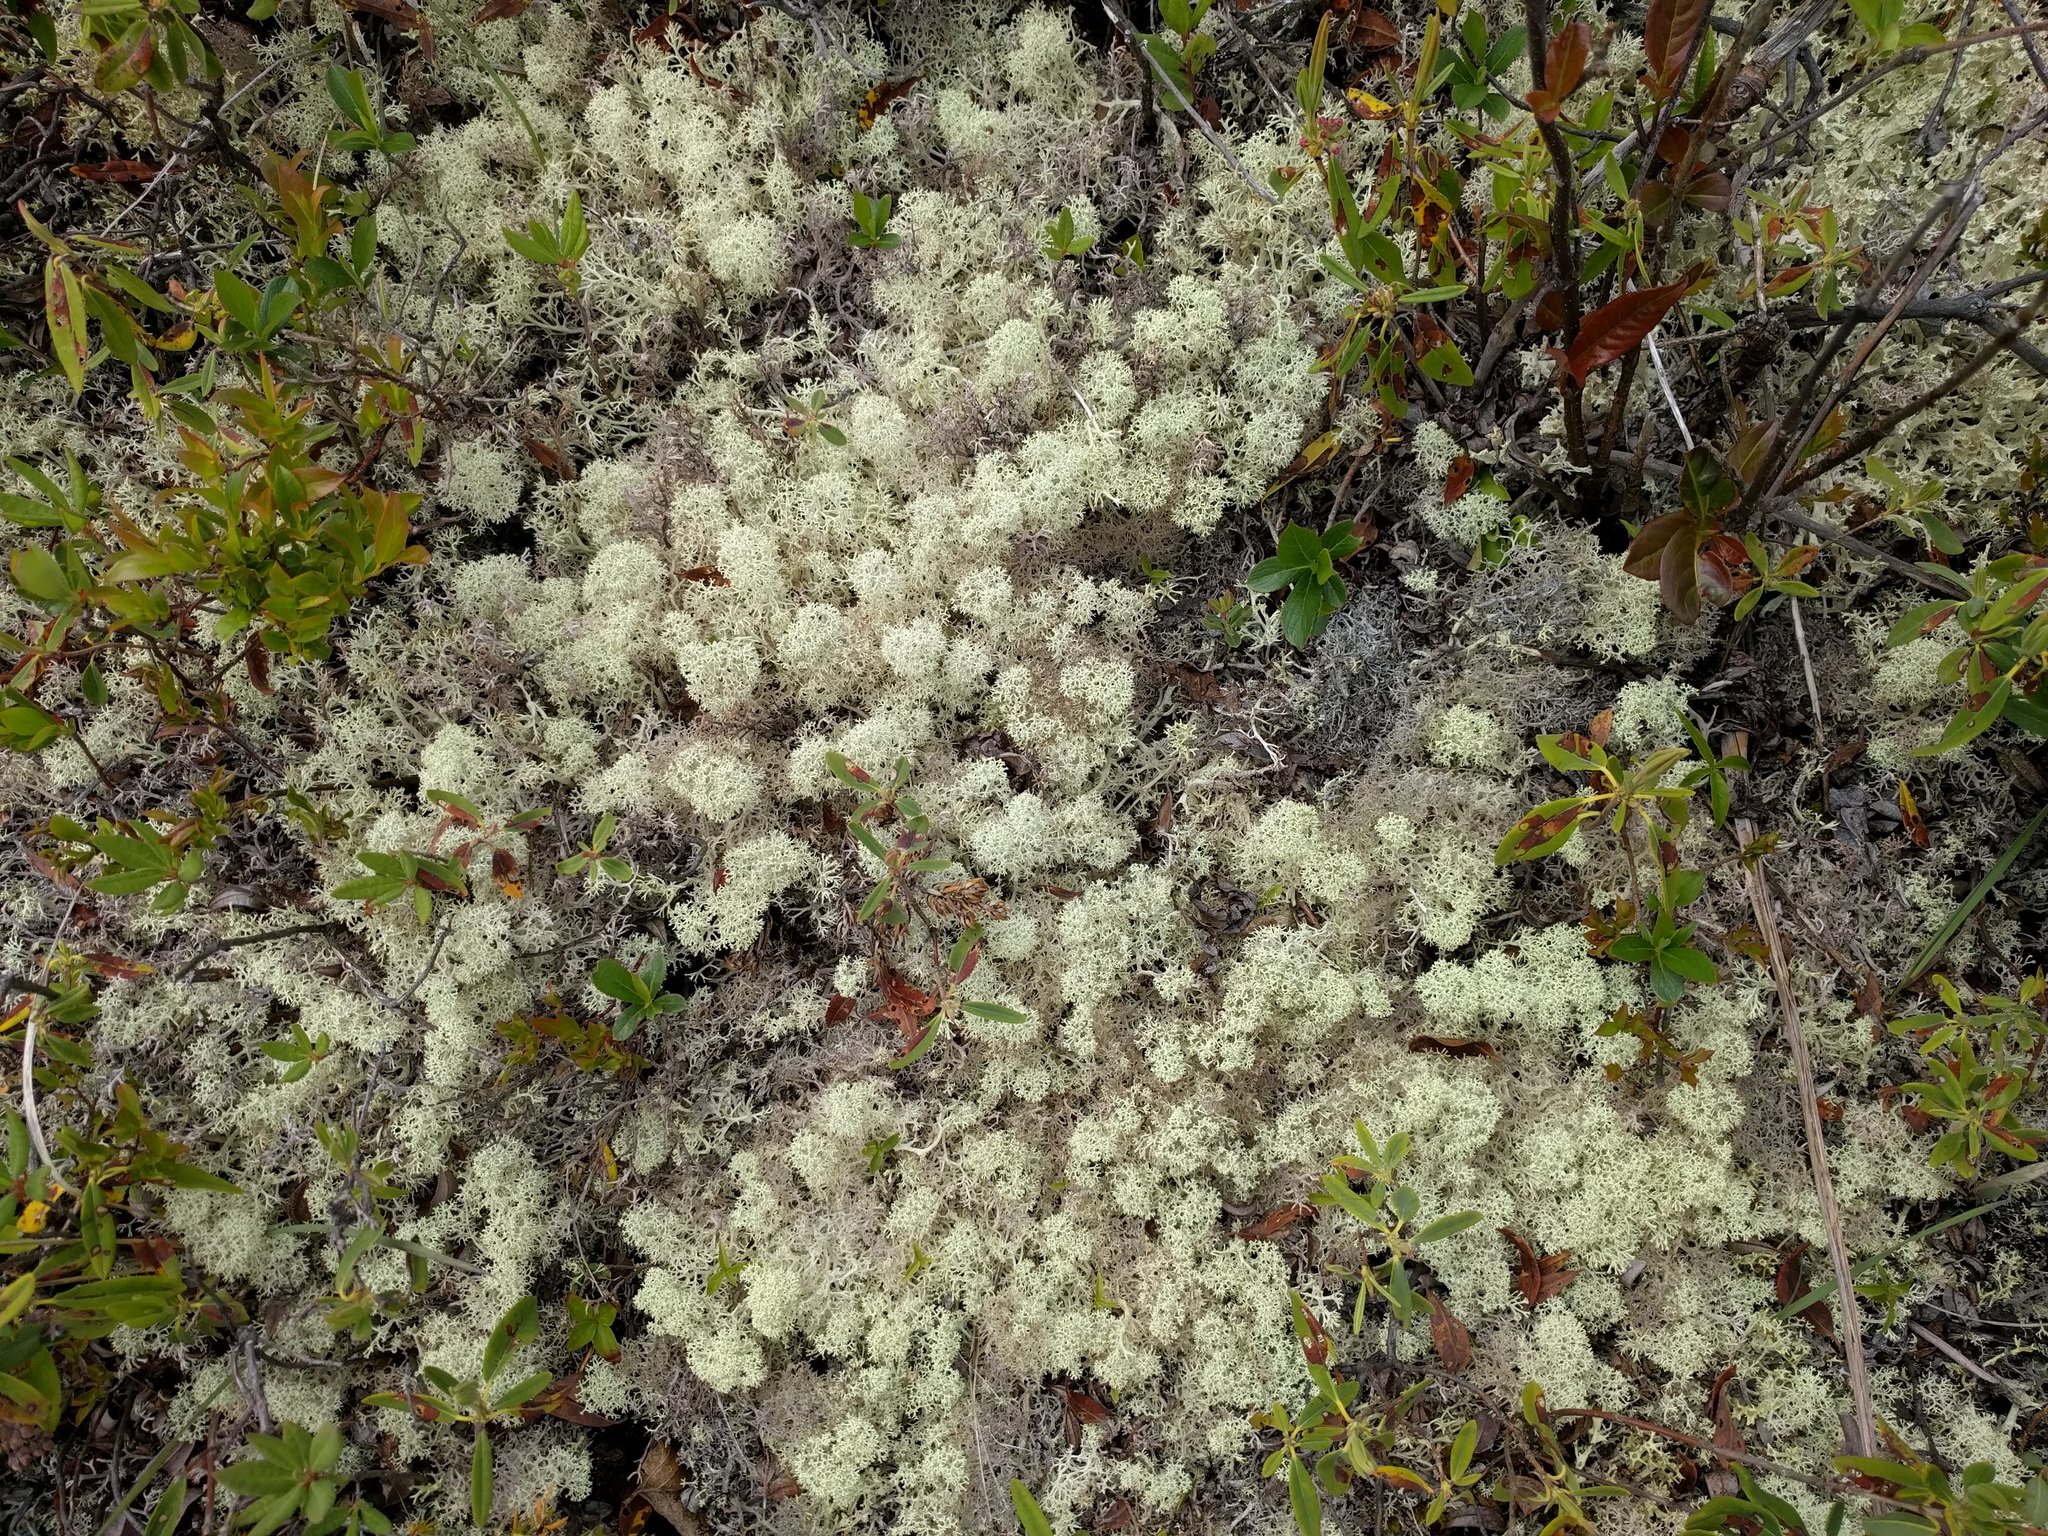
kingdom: Fungi
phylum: Ascomycota
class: Lecanoromycetes
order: Lecanorales
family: Cladoniaceae
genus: Cladonia
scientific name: Cladonia stellaris
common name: Star-tipped reindeer lichen
